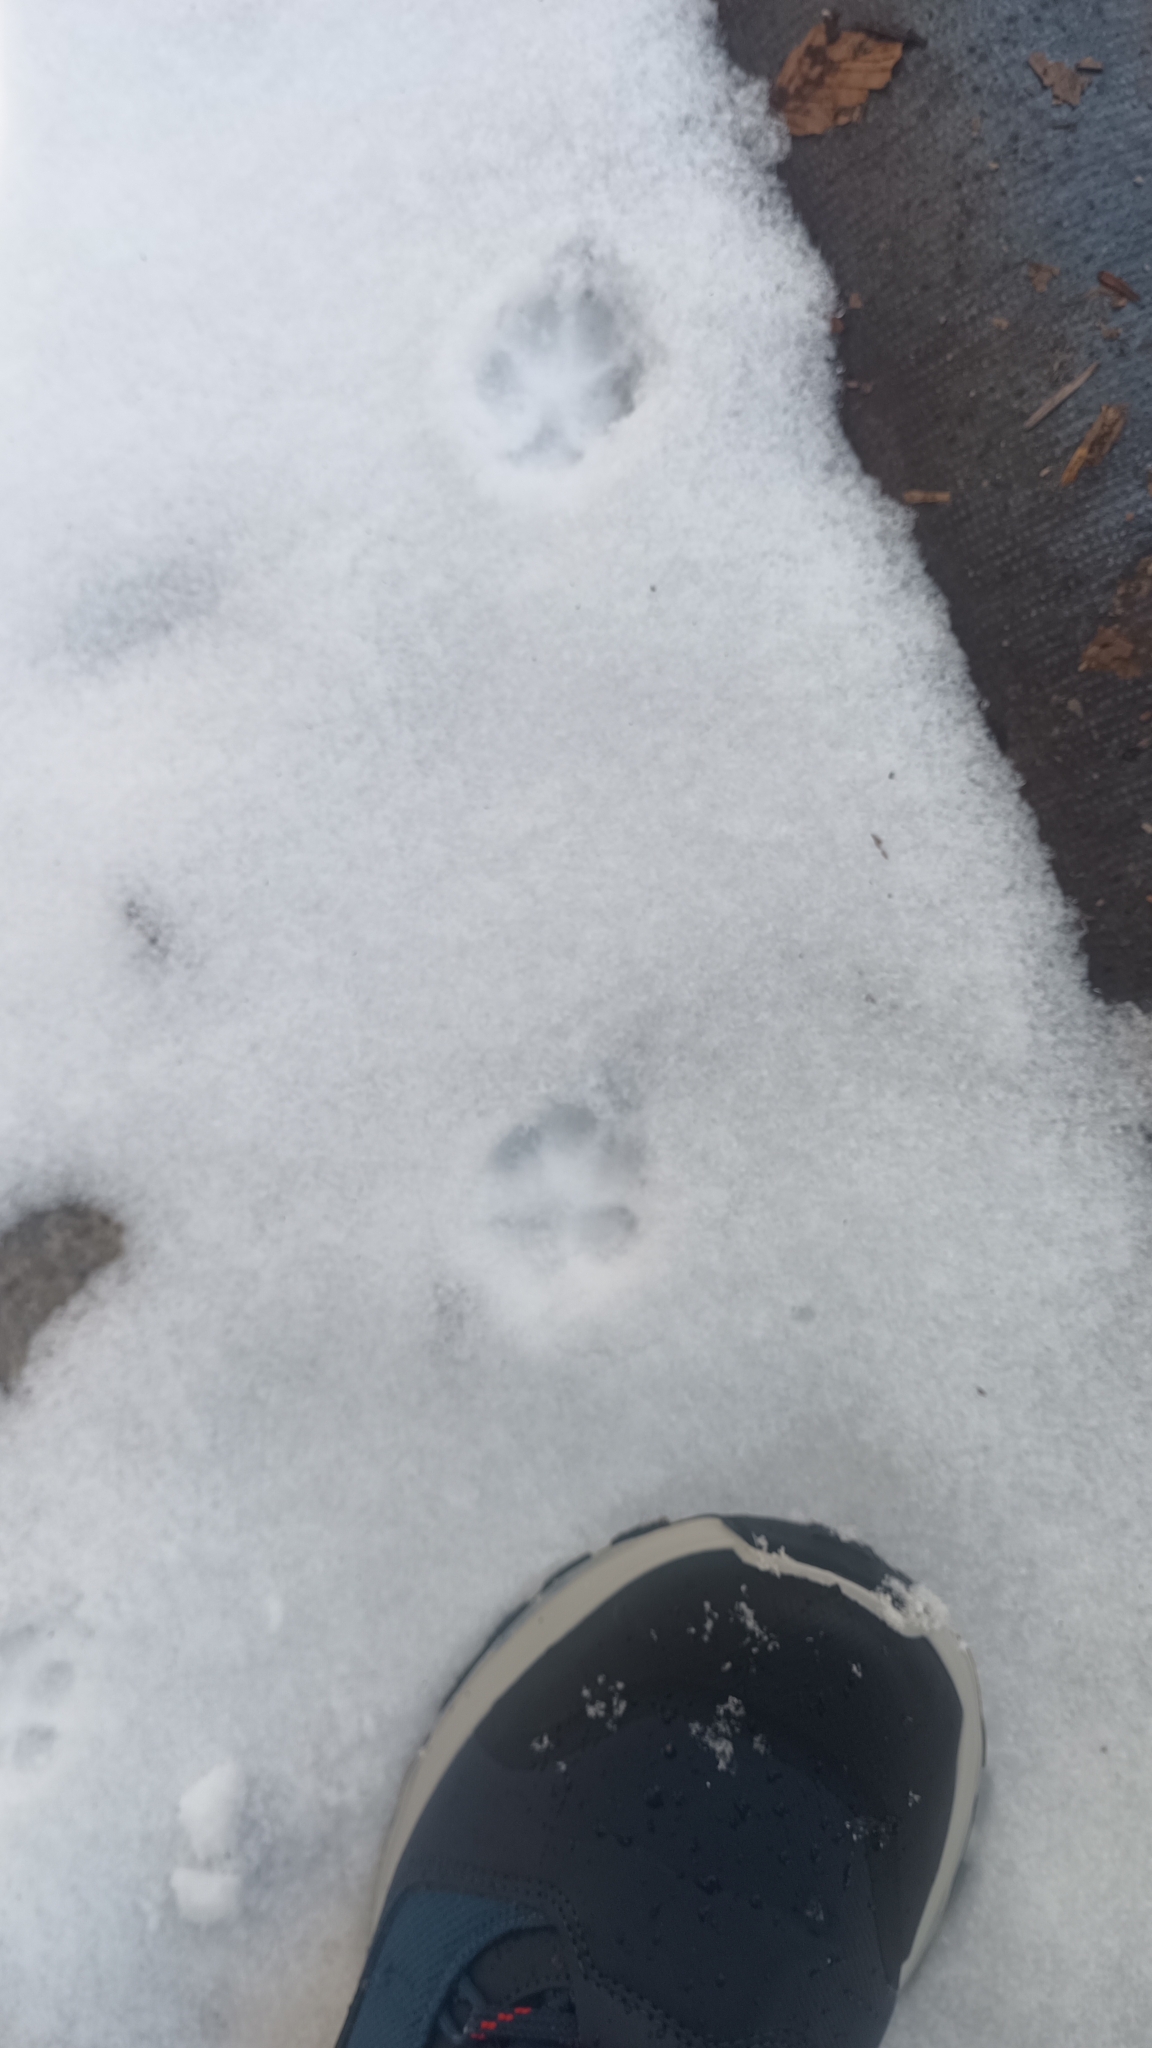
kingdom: Animalia
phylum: Chordata
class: Mammalia
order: Carnivora
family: Canidae
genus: Vulpes
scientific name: Vulpes vulpes
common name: Red fox
